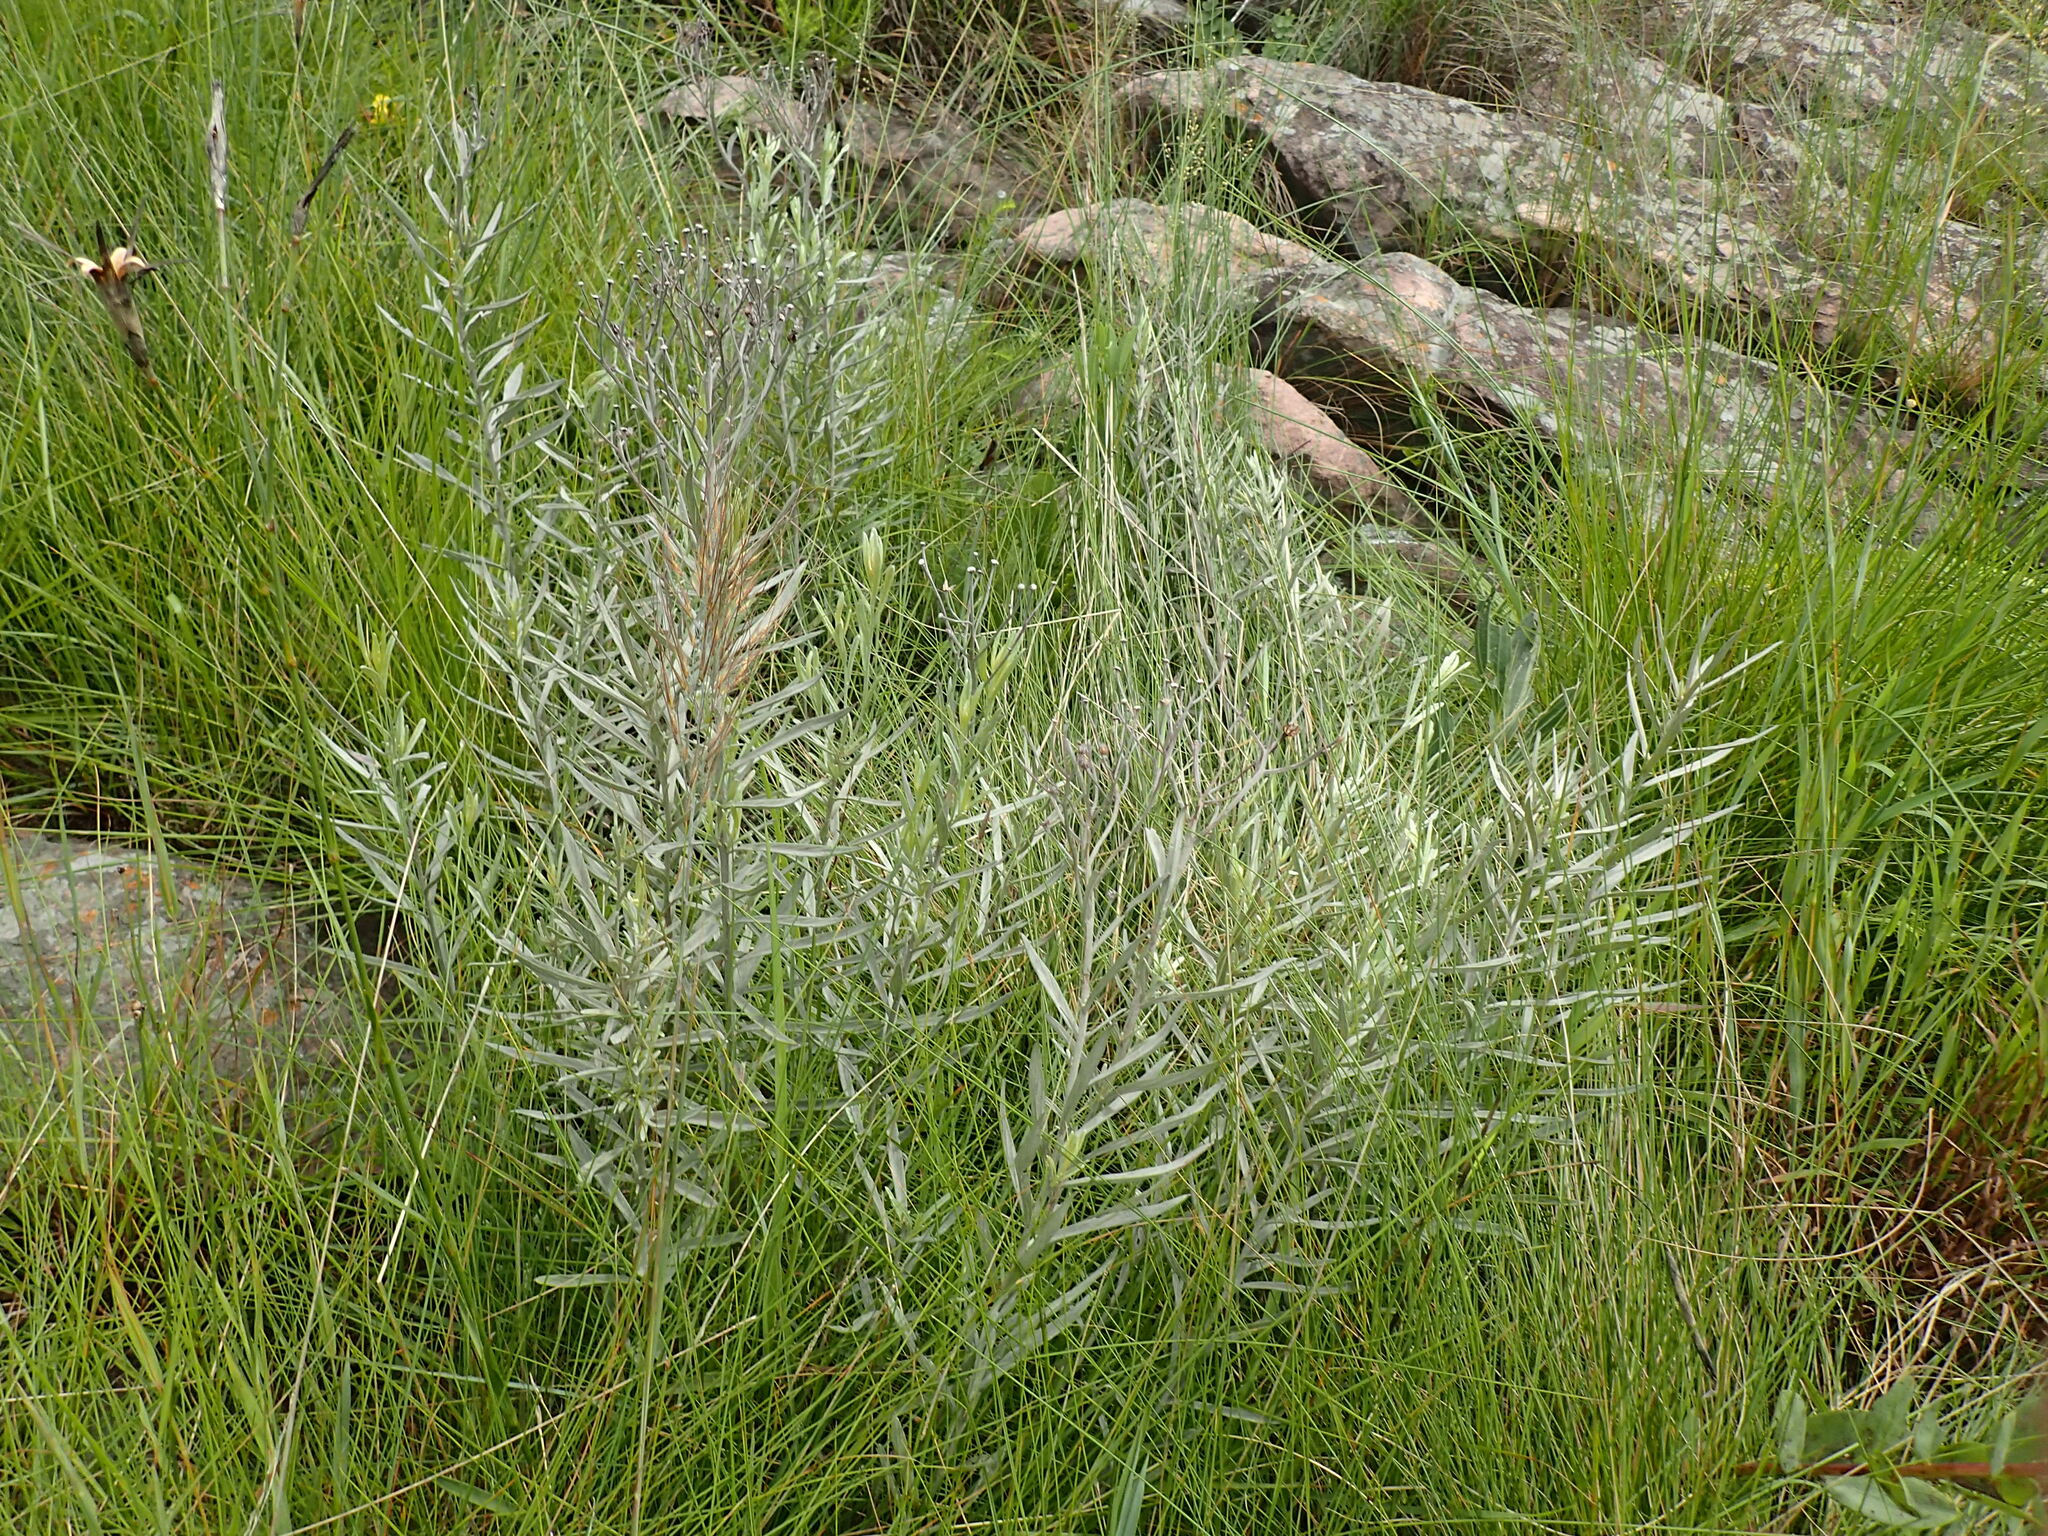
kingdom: Plantae
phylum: Tracheophyta
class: Magnoliopsida
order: Asterales
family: Asteraceae
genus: Hilliardiella
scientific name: Hilliardiella aristata
